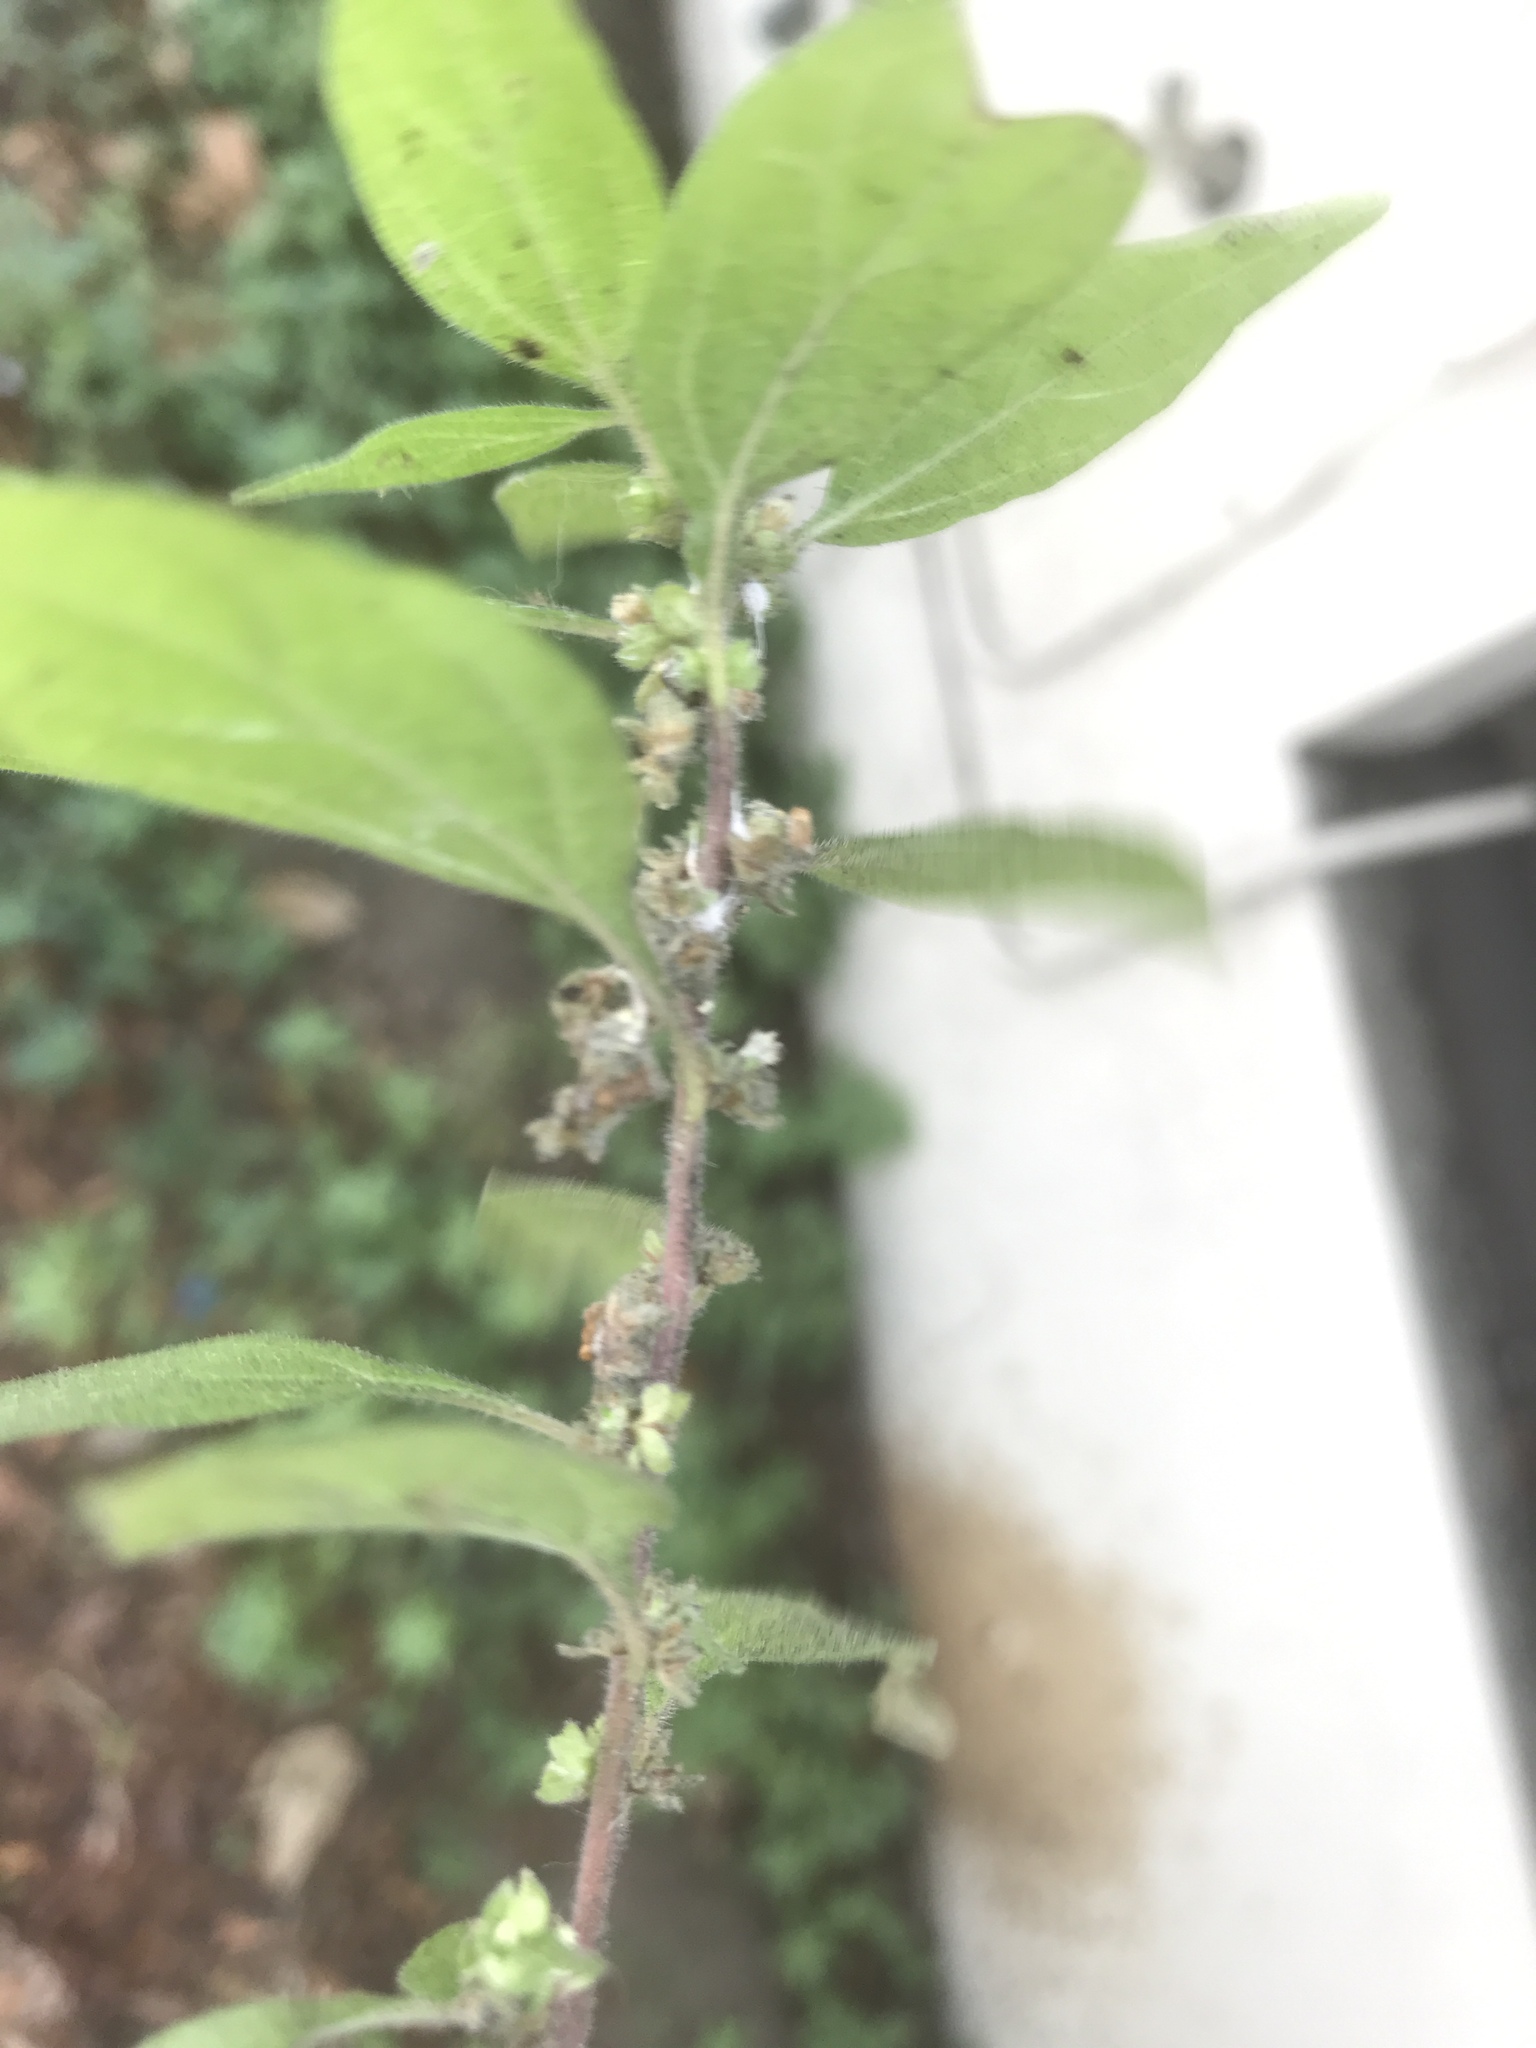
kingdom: Plantae
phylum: Tracheophyta
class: Magnoliopsida
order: Rosales
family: Urticaceae
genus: Parietaria
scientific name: Parietaria judaica
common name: Pellitory-of-the-wall
